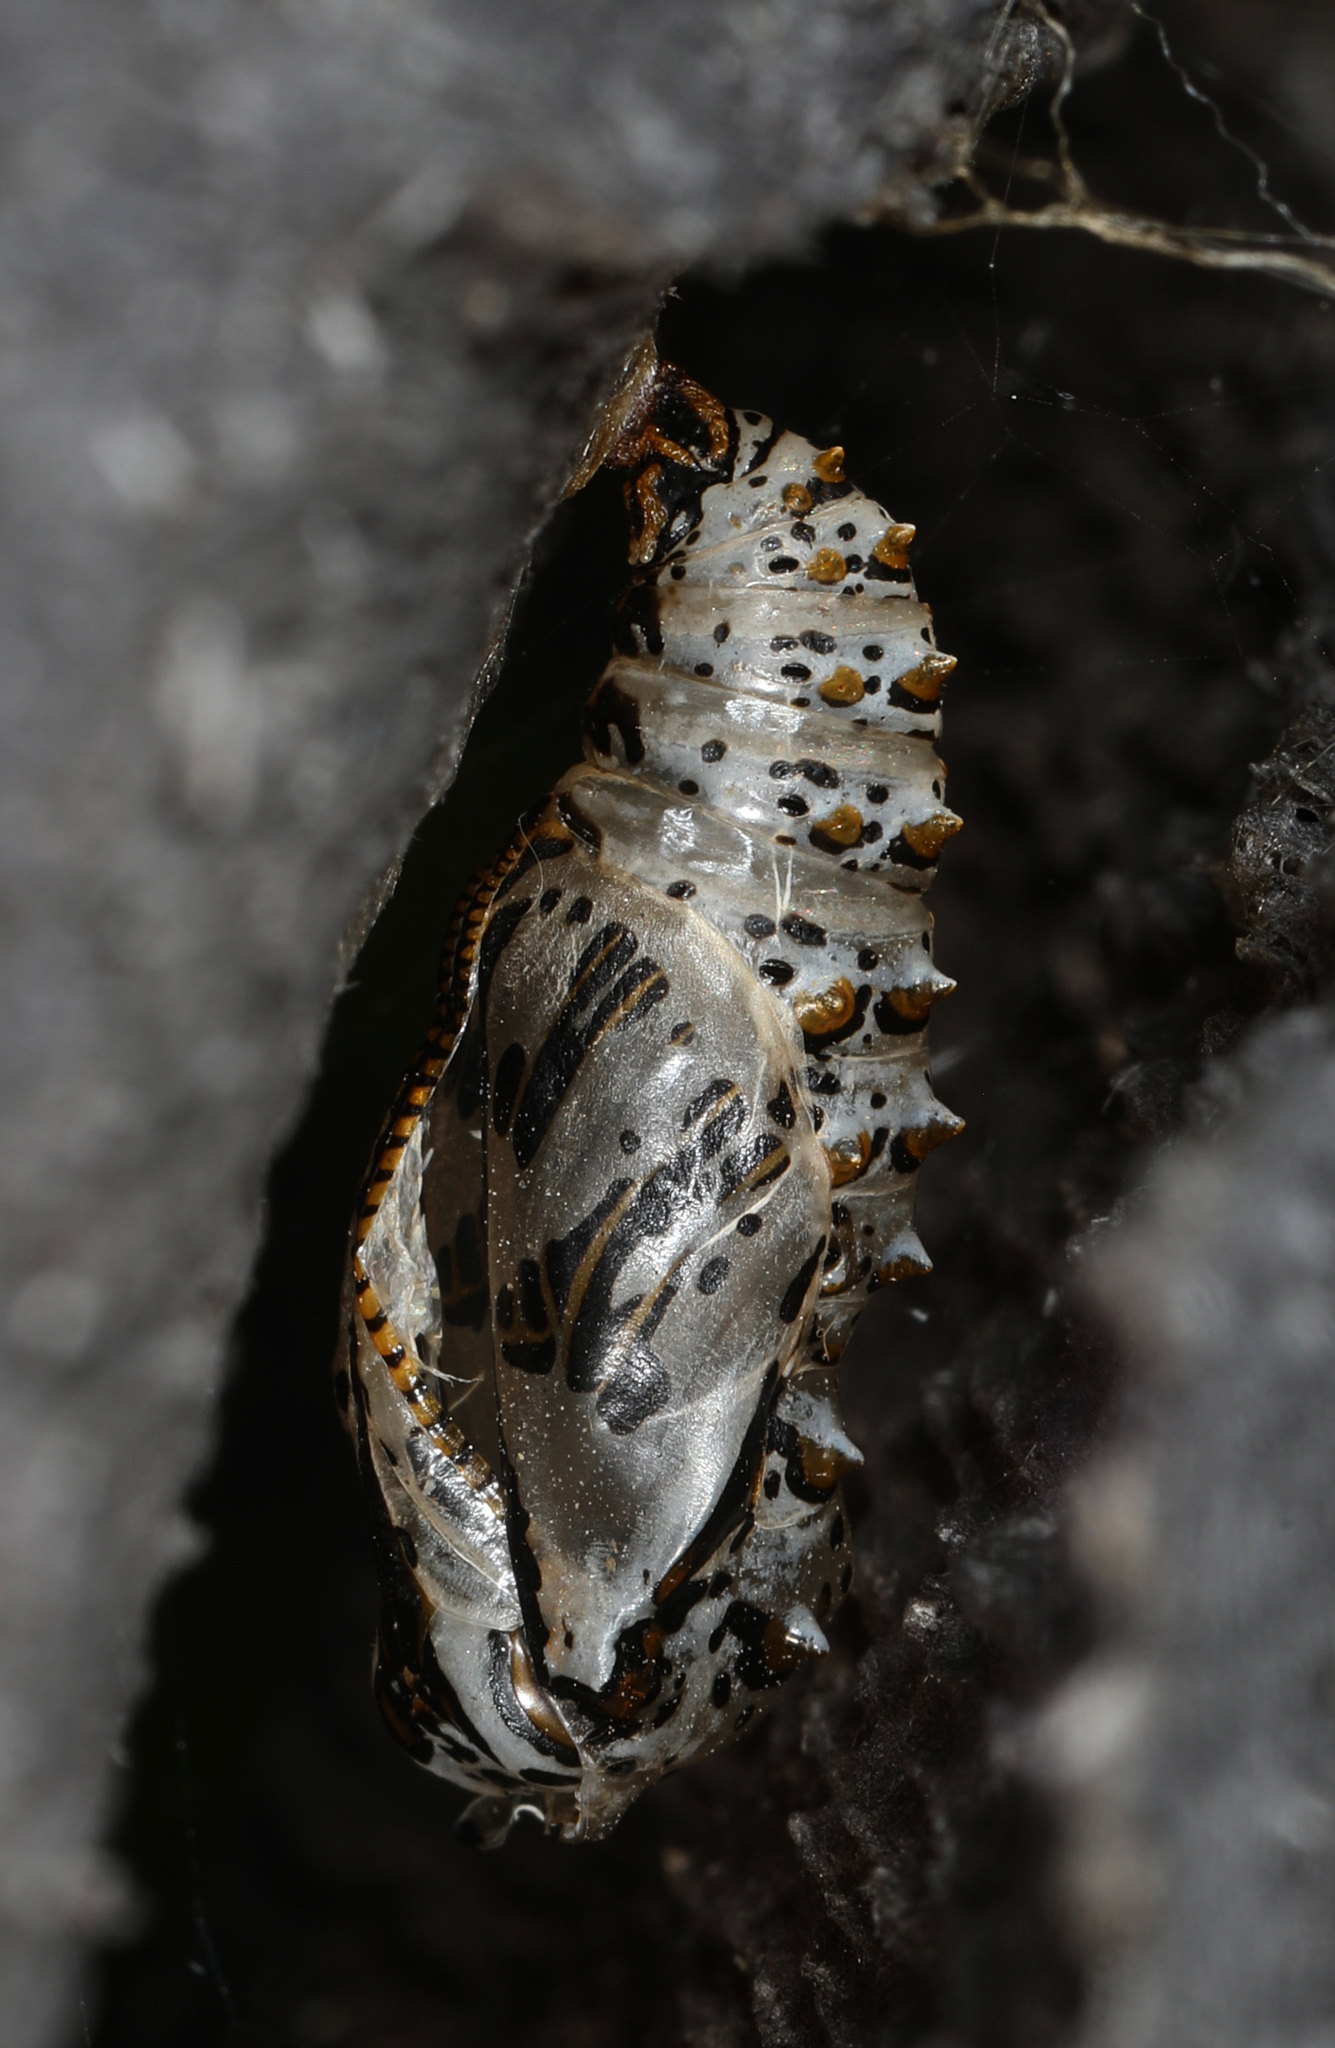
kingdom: Animalia
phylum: Arthropoda
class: Insecta
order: Lepidoptera
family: Nymphalidae
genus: Euptoieta
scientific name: Euptoieta claudia
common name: Variegated fritillary
